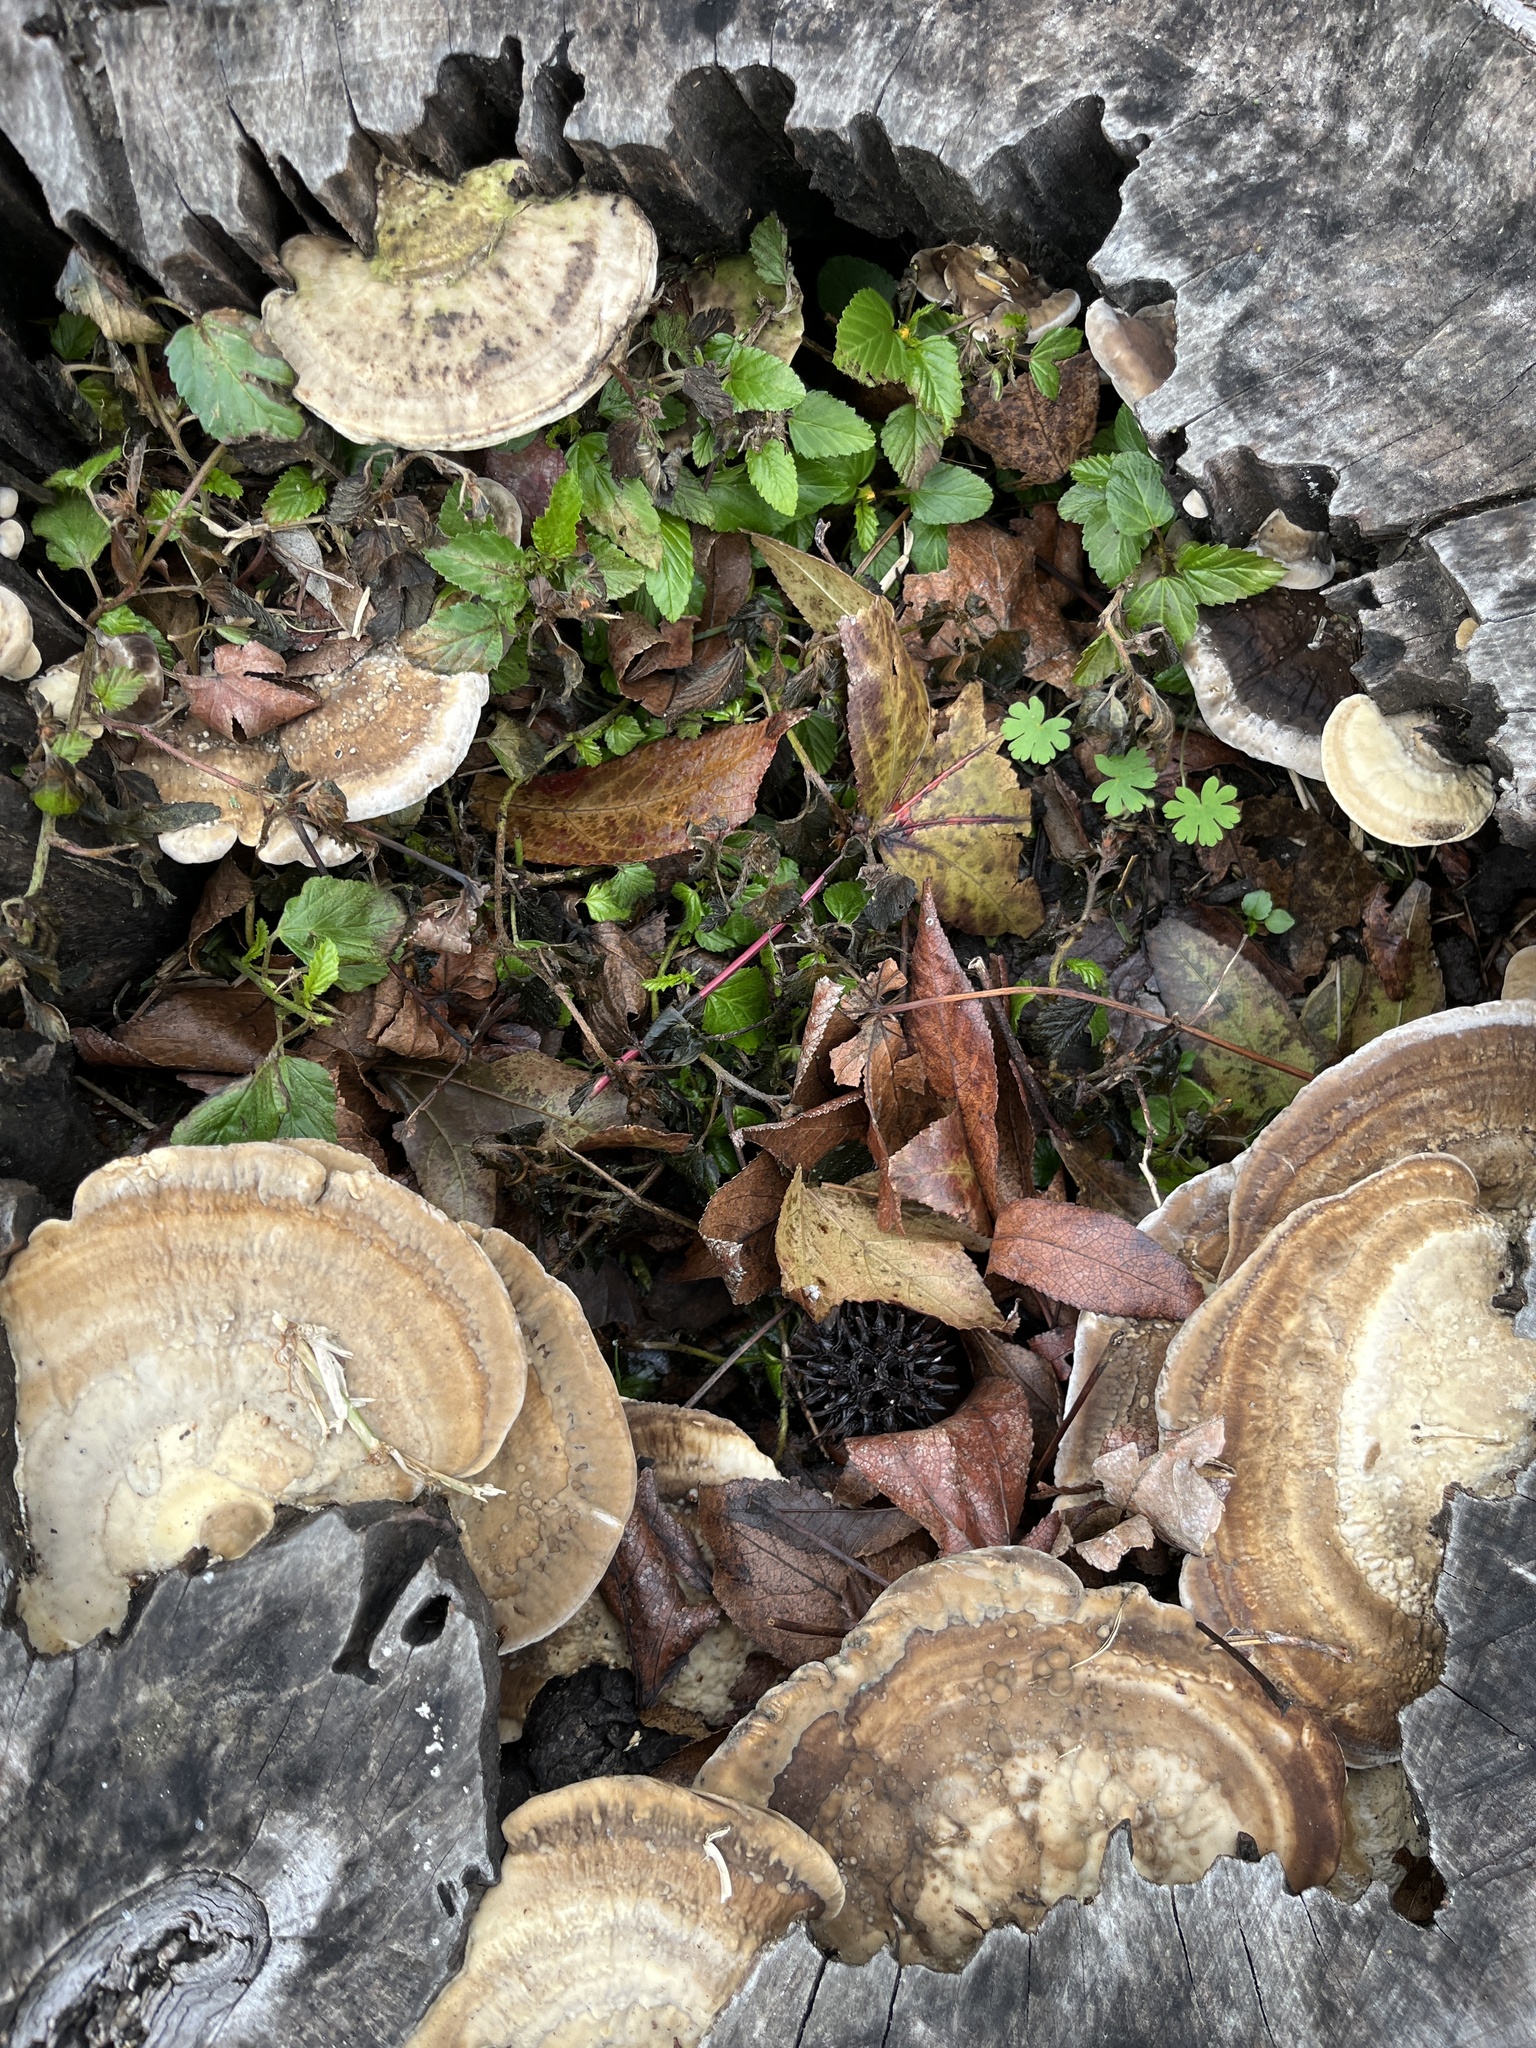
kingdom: Fungi
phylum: Basidiomycota
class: Agaricomycetes
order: Polyporales
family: Polyporaceae
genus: Trametes
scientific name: Trametes lactinea
